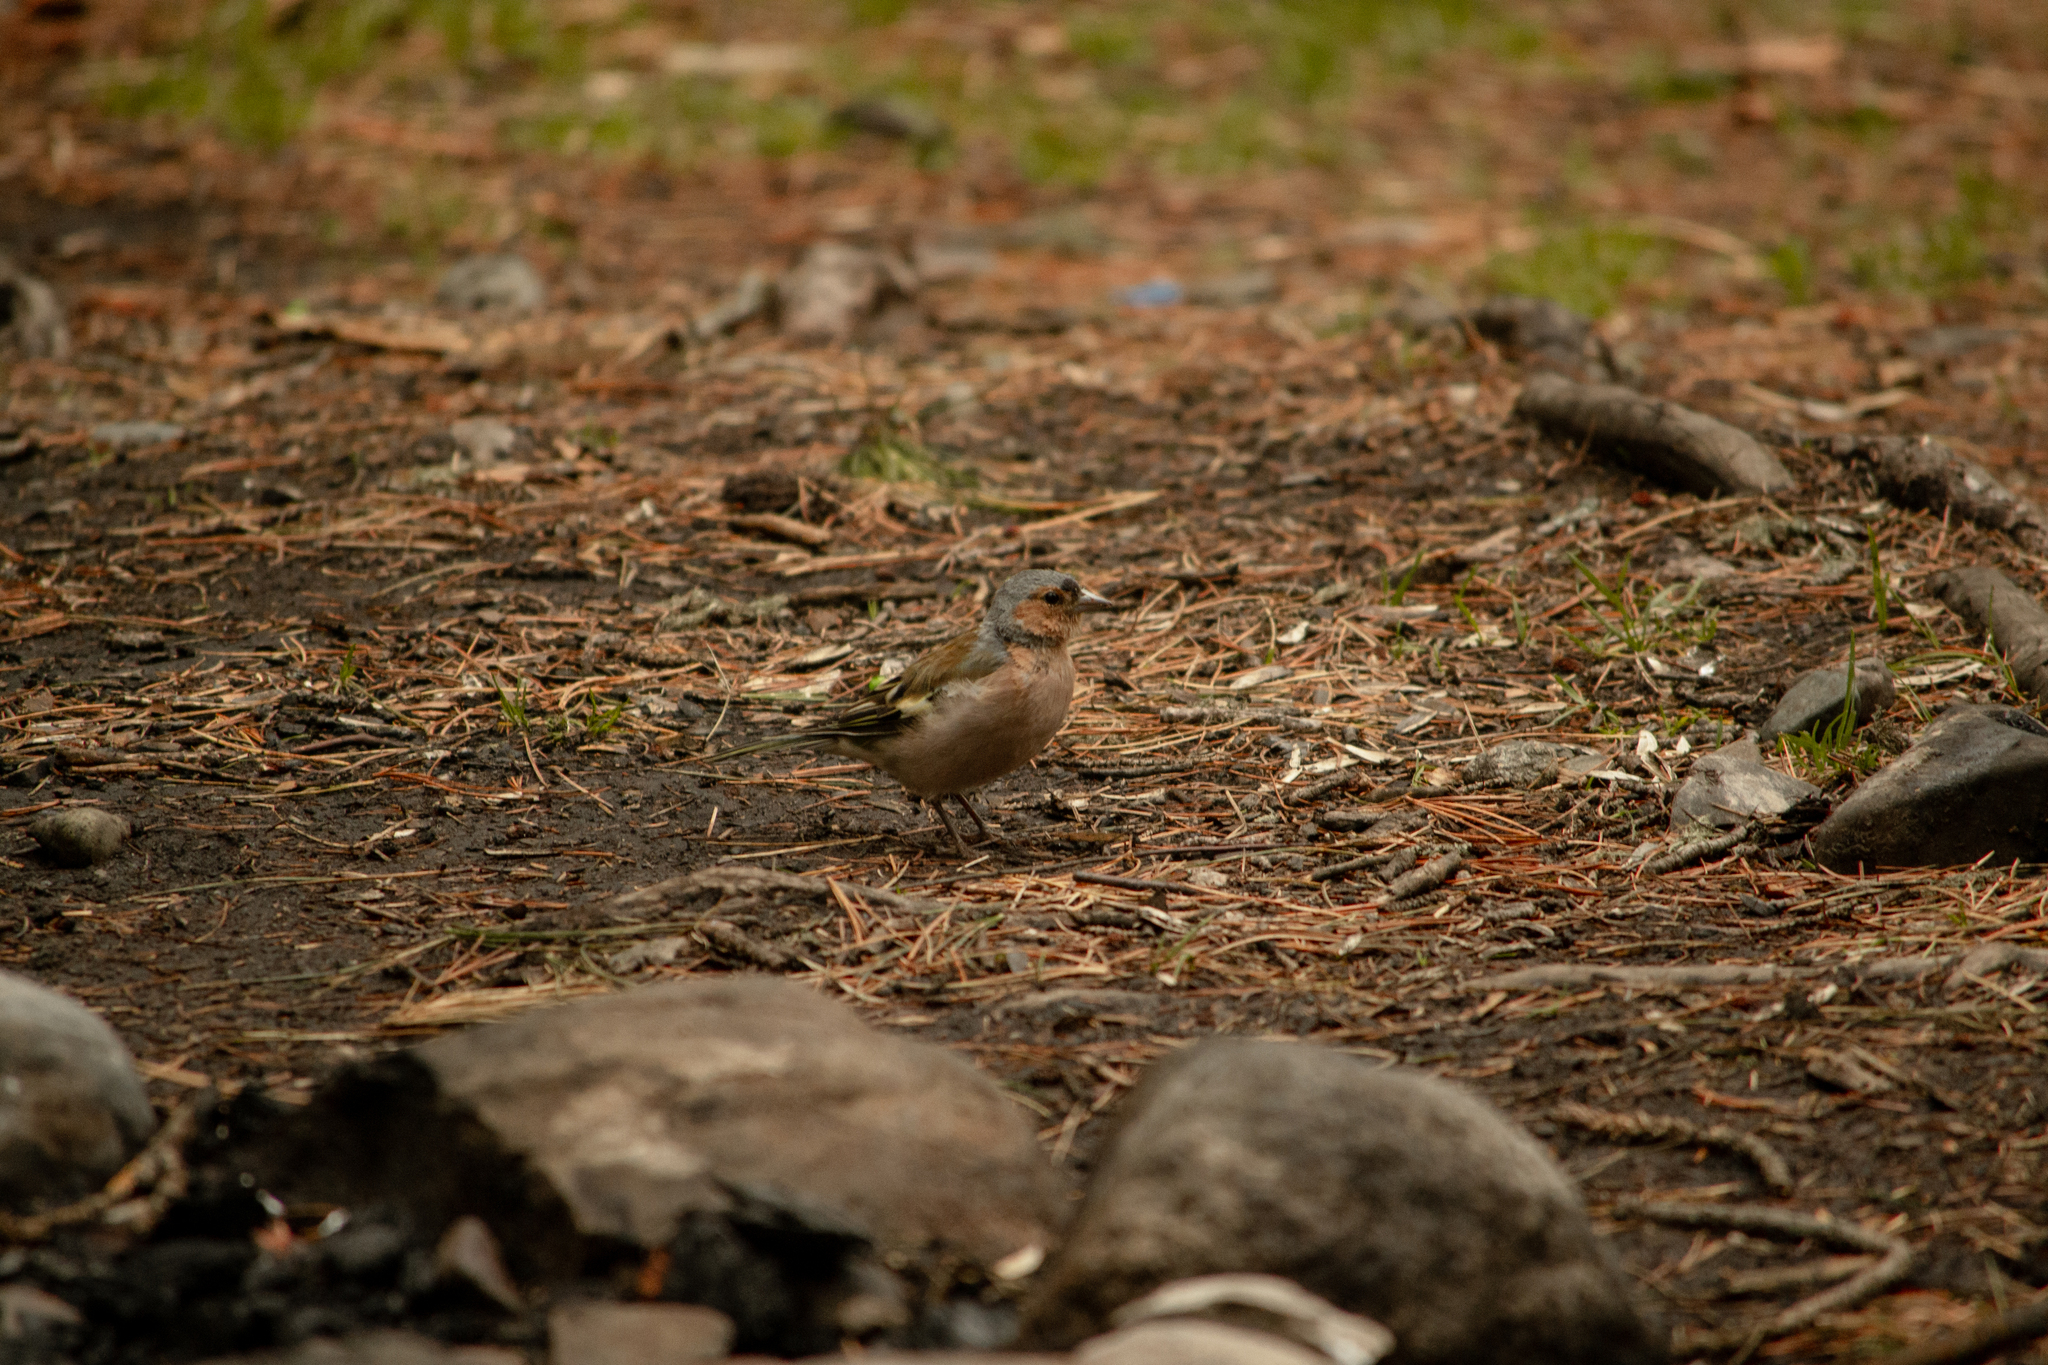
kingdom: Animalia
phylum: Chordata
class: Aves
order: Passeriformes
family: Fringillidae
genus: Fringilla
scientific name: Fringilla coelebs
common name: Common chaffinch
